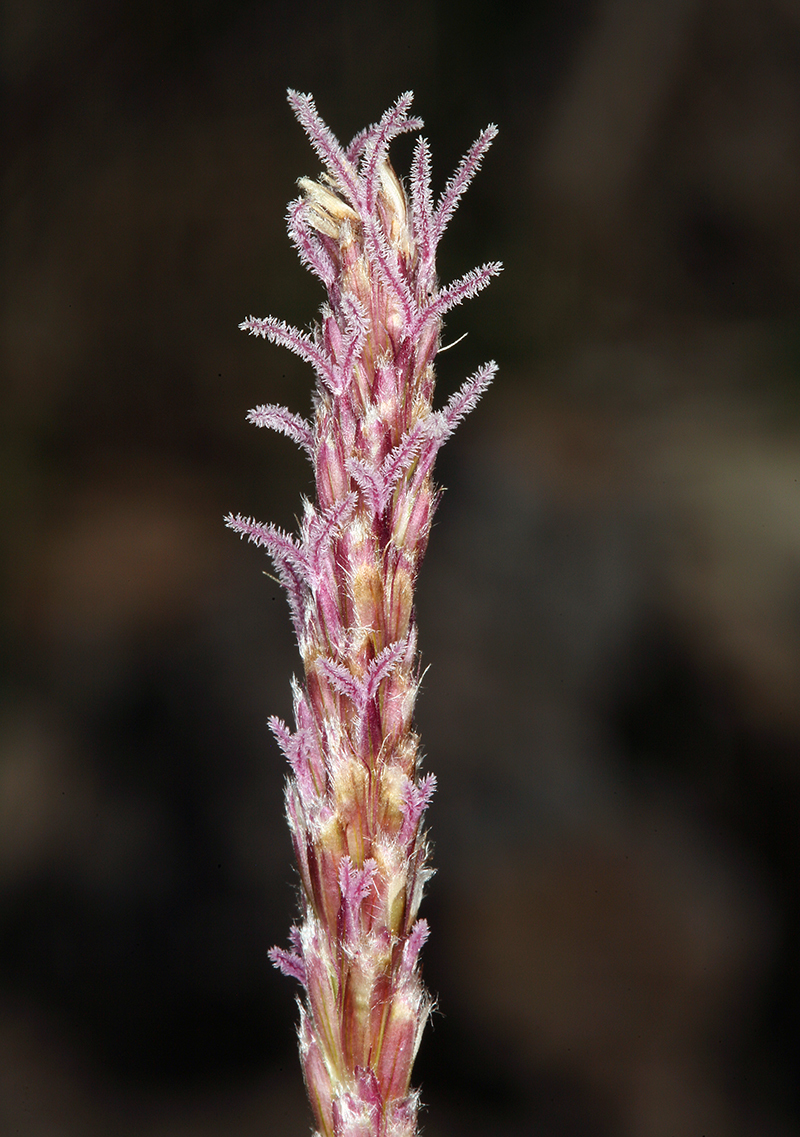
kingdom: Plantae
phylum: Tracheophyta
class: Liliopsida
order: Poales
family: Poaceae
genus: Hilaria
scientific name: Hilaria rigida
